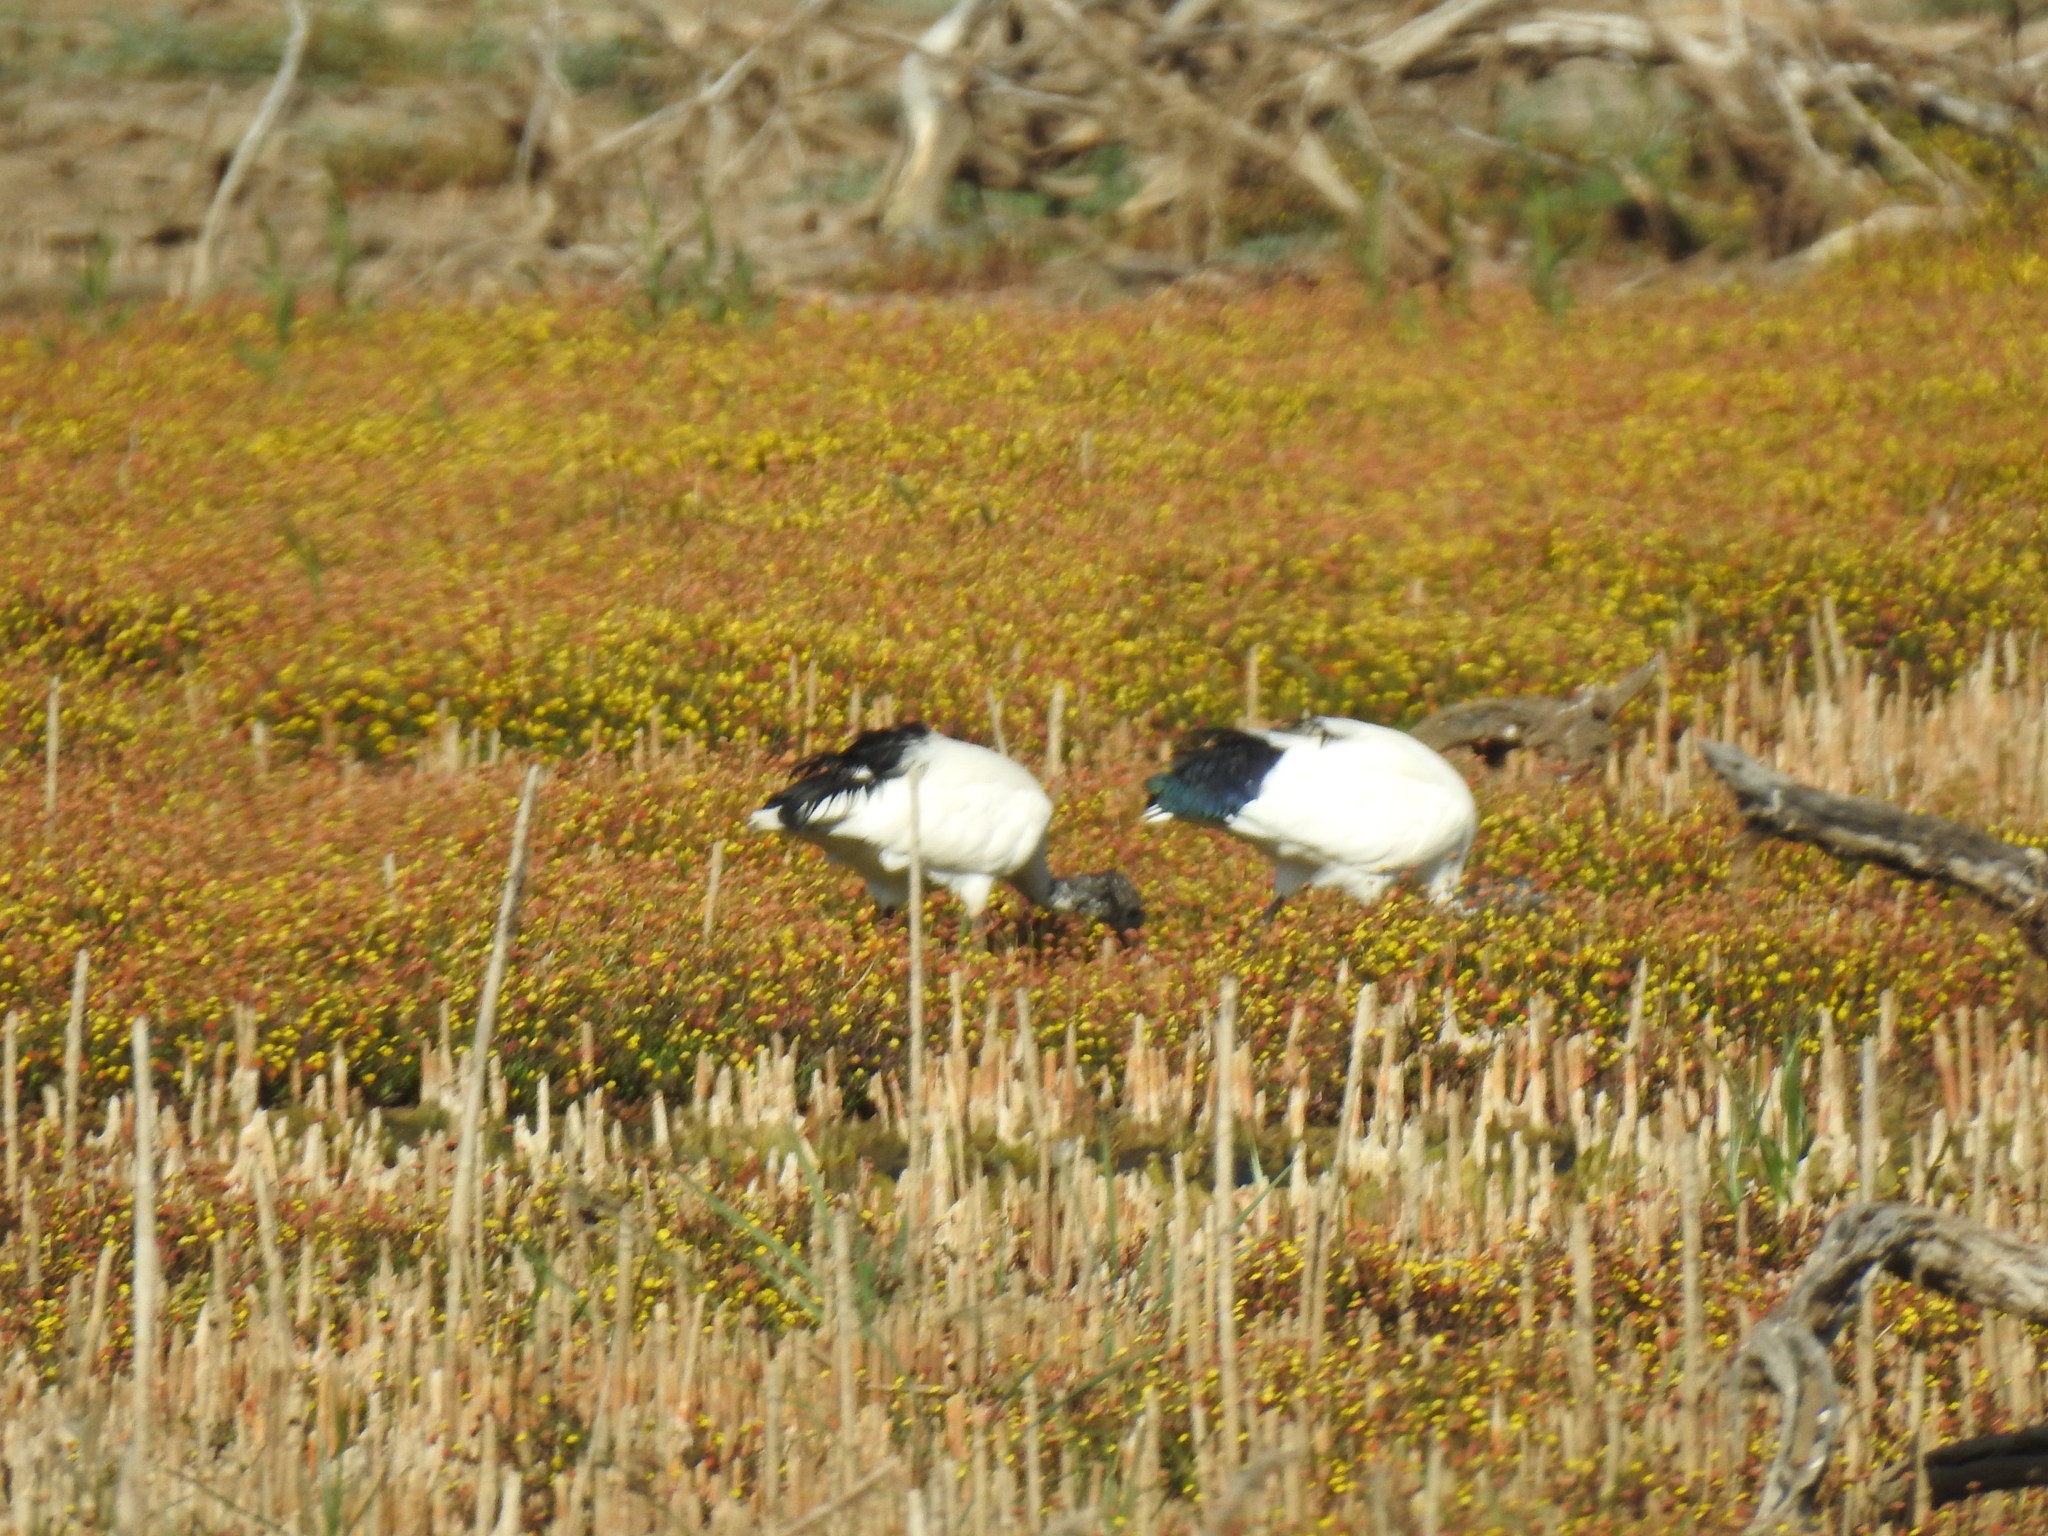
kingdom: Animalia
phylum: Chordata
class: Aves
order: Pelecaniformes
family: Threskiornithidae
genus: Threskiornis
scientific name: Threskiornis aethiopicus
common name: Sacred ibis
